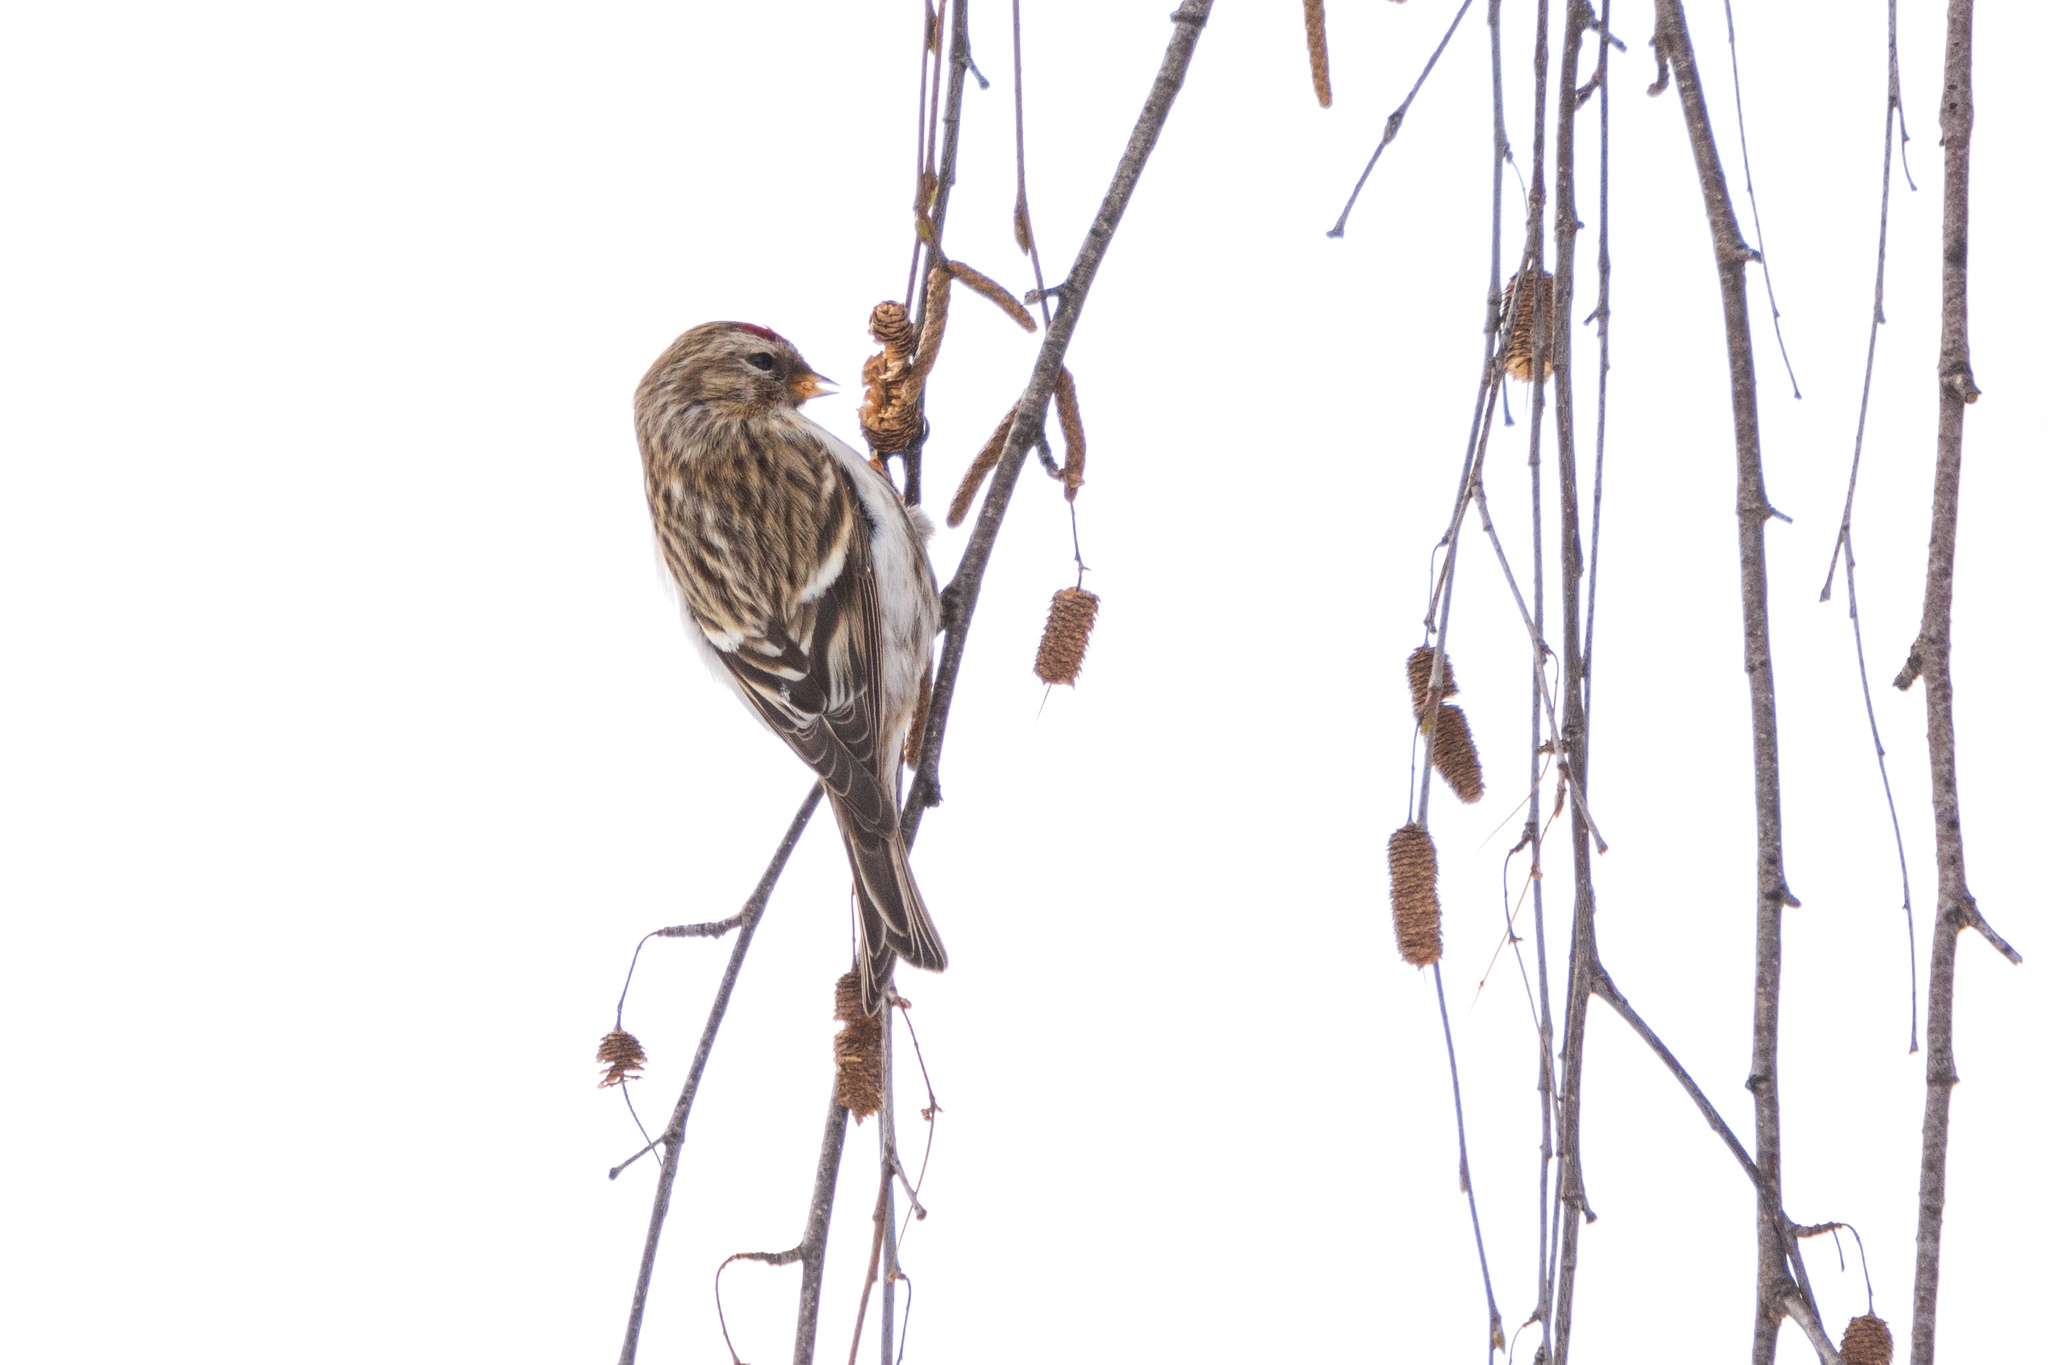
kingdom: Animalia
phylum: Chordata
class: Aves
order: Passeriformes
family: Fringillidae
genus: Acanthis
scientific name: Acanthis flammea
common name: Common redpoll
